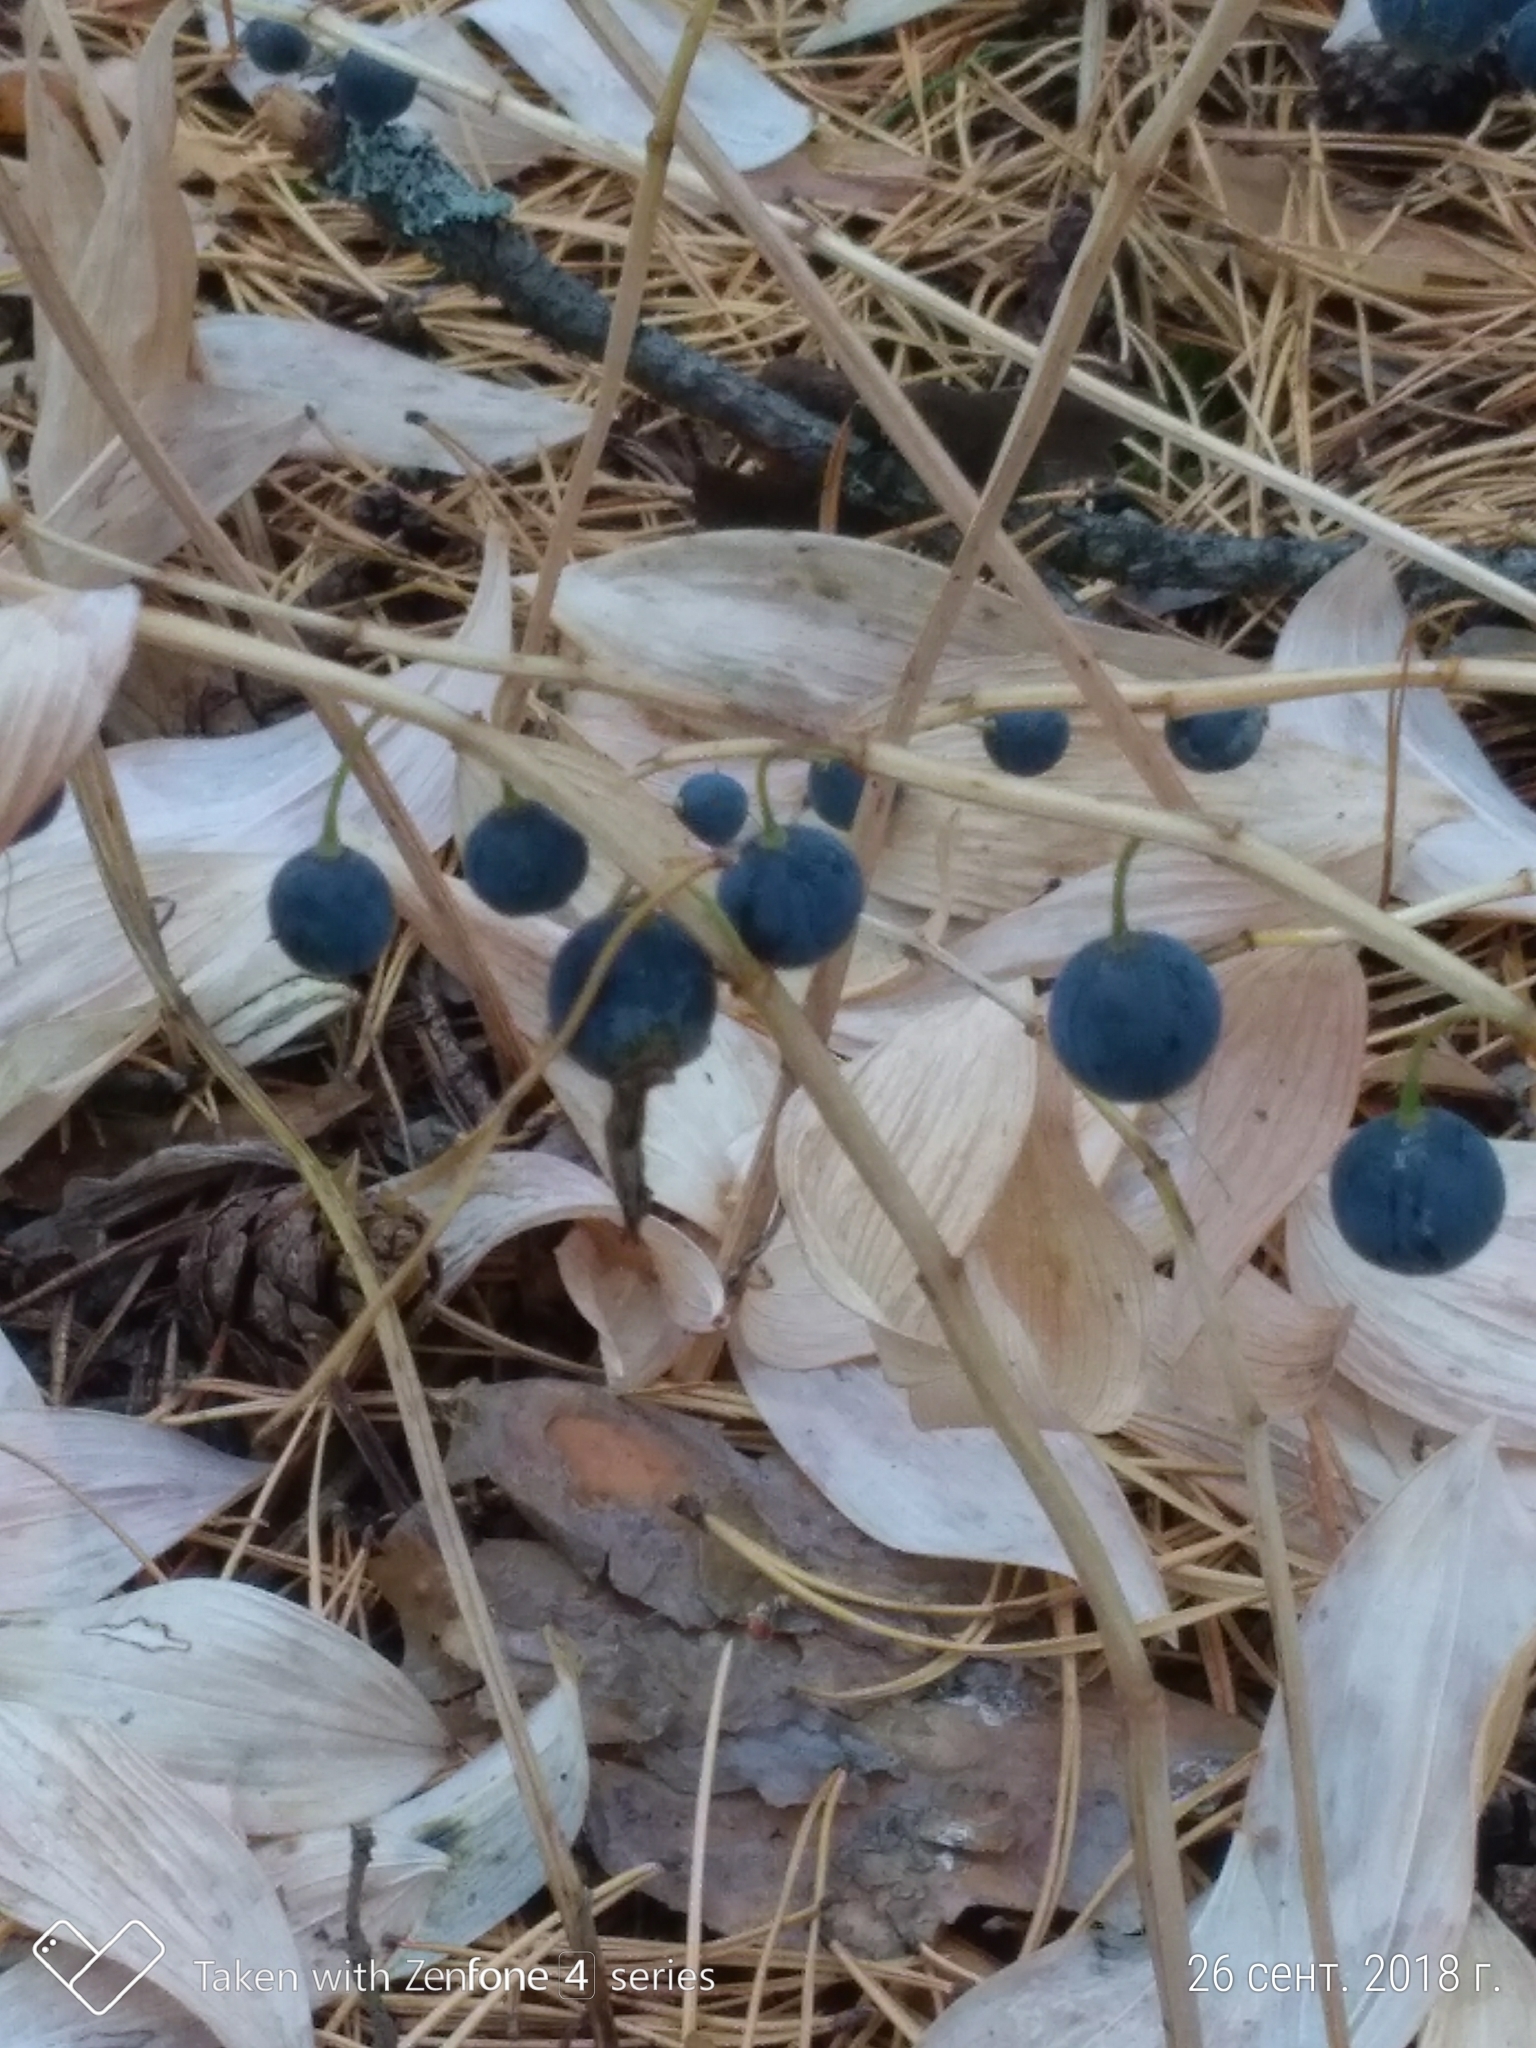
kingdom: Plantae
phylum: Tracheophyta
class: Liliopsida
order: Asparagales
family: Asparagaceae
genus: Polygonatum
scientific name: Polygonatum odoratum
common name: Angular solomon's-seal
